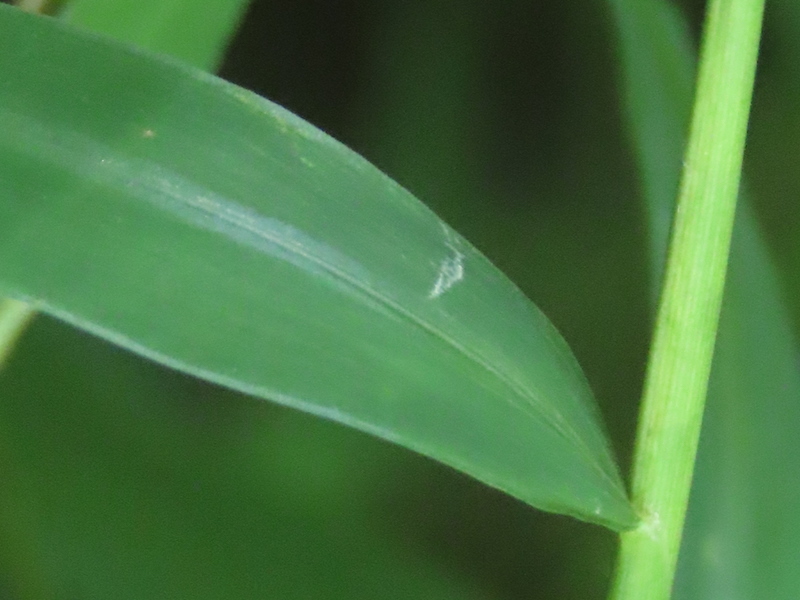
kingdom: Plantae
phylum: Tracheophyta
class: Liliopsida
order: Poales
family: Poaceae
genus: Microstegium
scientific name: Microstegium vimineum
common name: Japanese stiltgrass
